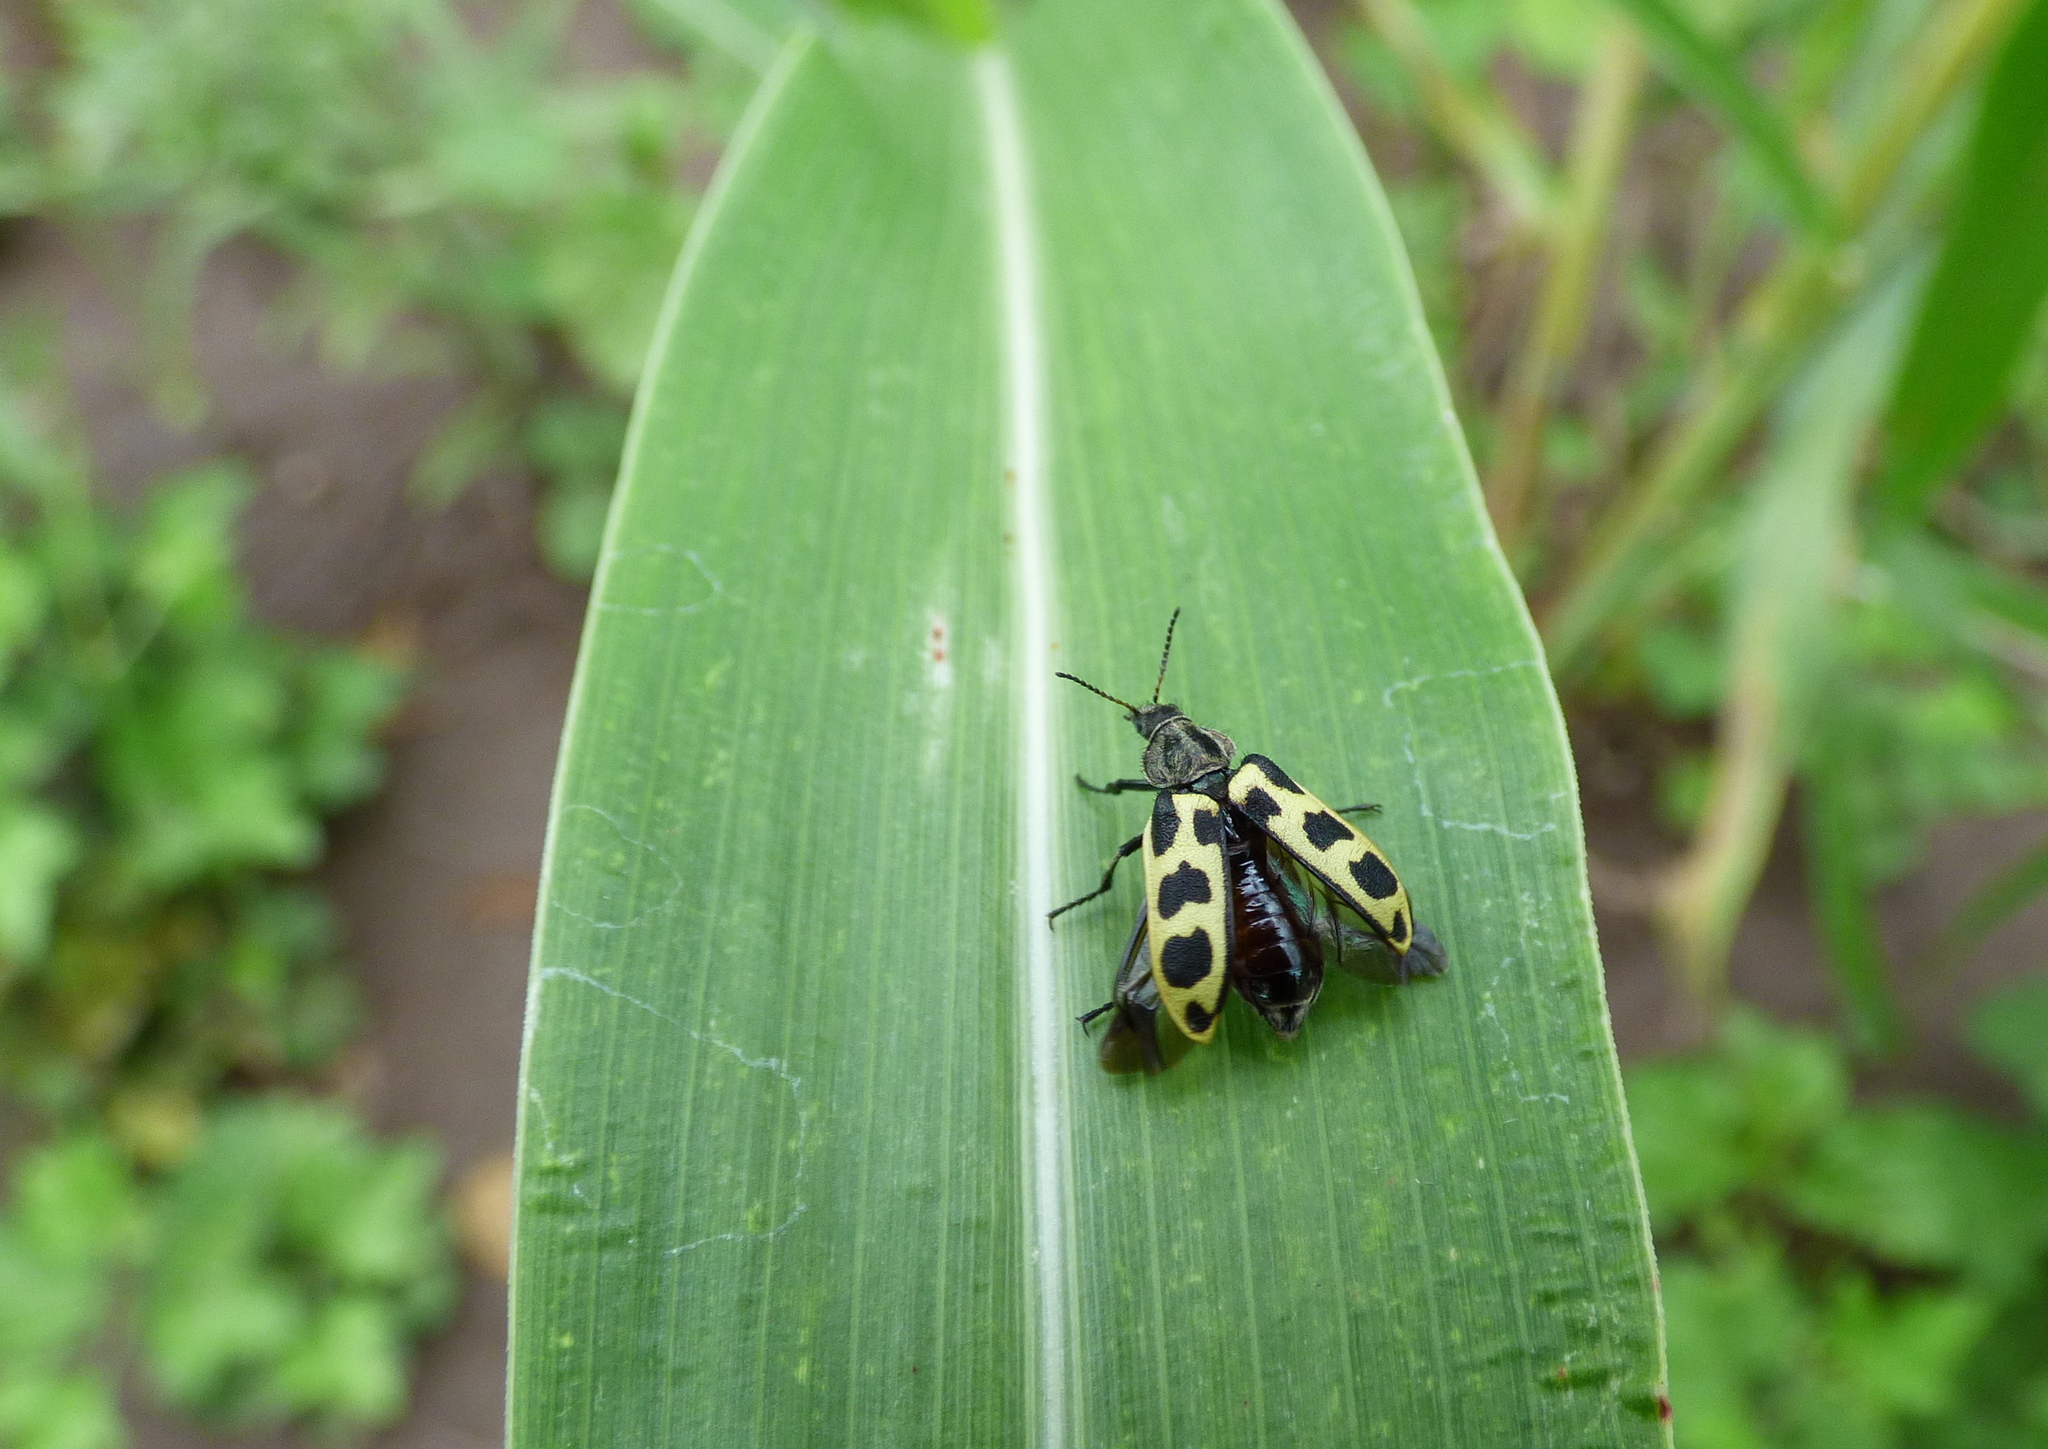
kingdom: Animalia
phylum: Arthropoda
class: Insecta
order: Coleoptera
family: Melyridae
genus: Astylus
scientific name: Astylus atromaculatus
